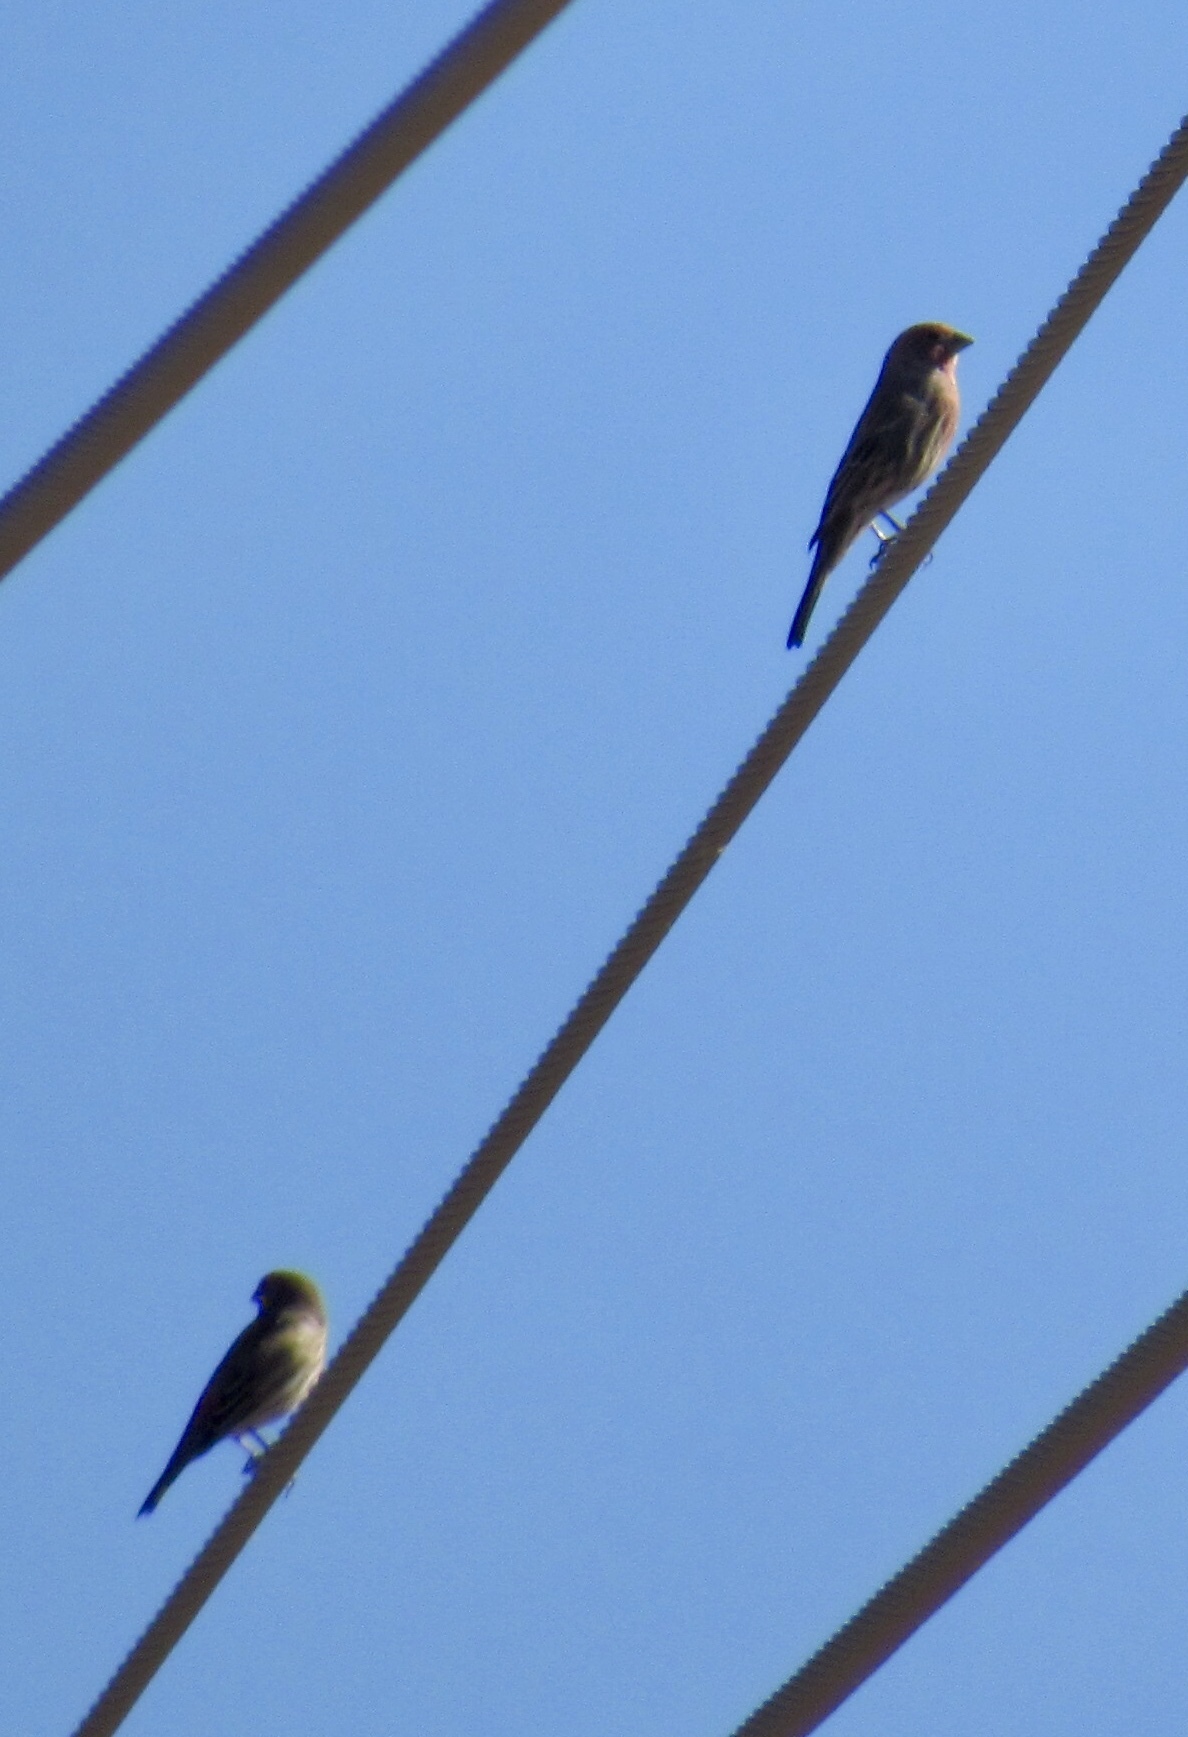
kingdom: Animalia
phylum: Chordata
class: Aves
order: Passeriformes
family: Fringillidae
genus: Haemorhous
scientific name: Haemorhous mexicanus
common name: House finch
